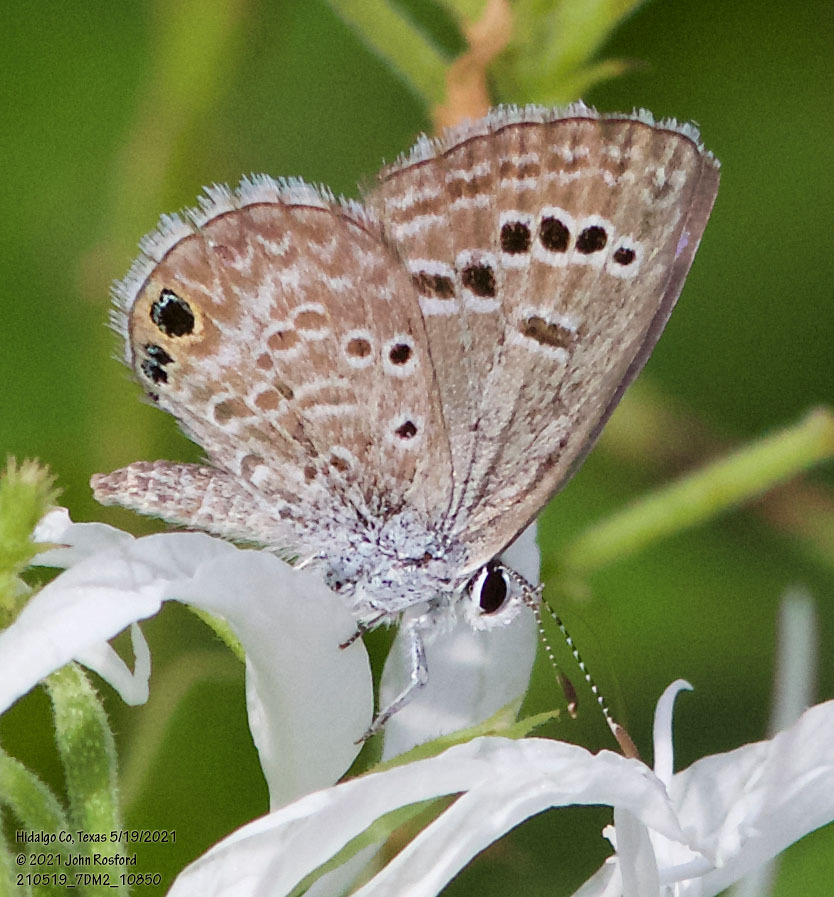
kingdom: Animalia
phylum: Arthropoda
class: Insecta
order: Lepidoptera
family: Lycaenidae
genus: Echinargus
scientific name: Echinargus isola
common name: Reakirt's blue
